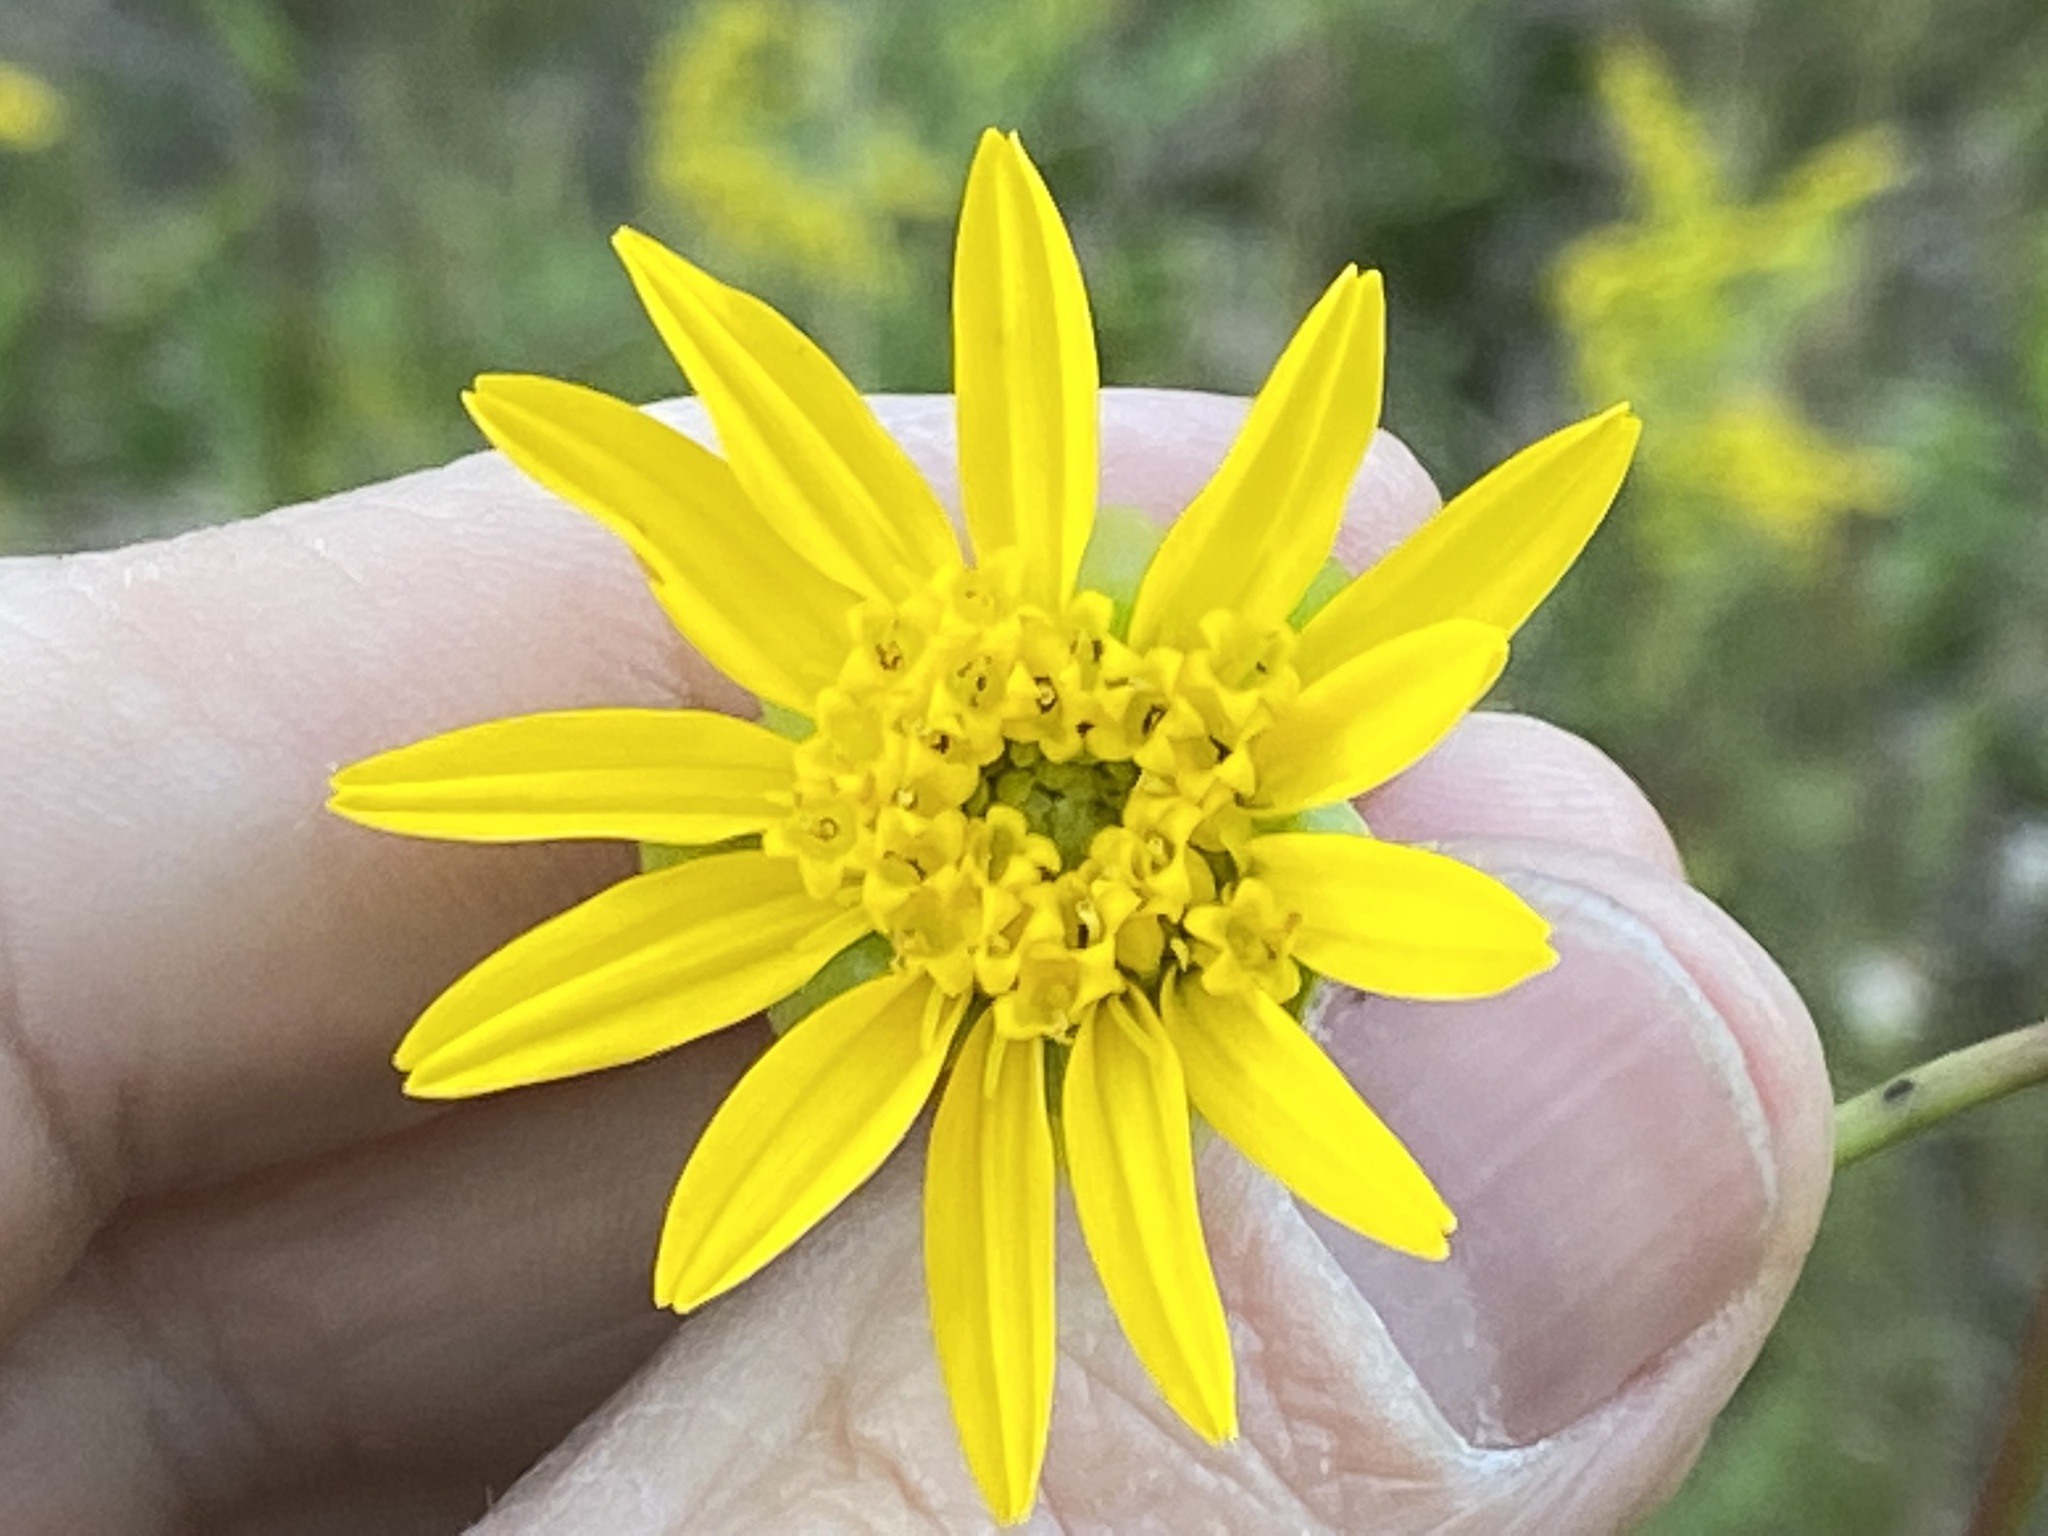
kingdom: Plantae
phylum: Tracheophyta
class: Magnoliopsida
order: Asterales
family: Asteraceae
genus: Silphium
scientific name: Silphium terebinthinaceum
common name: Basal-leaf rosinweed
